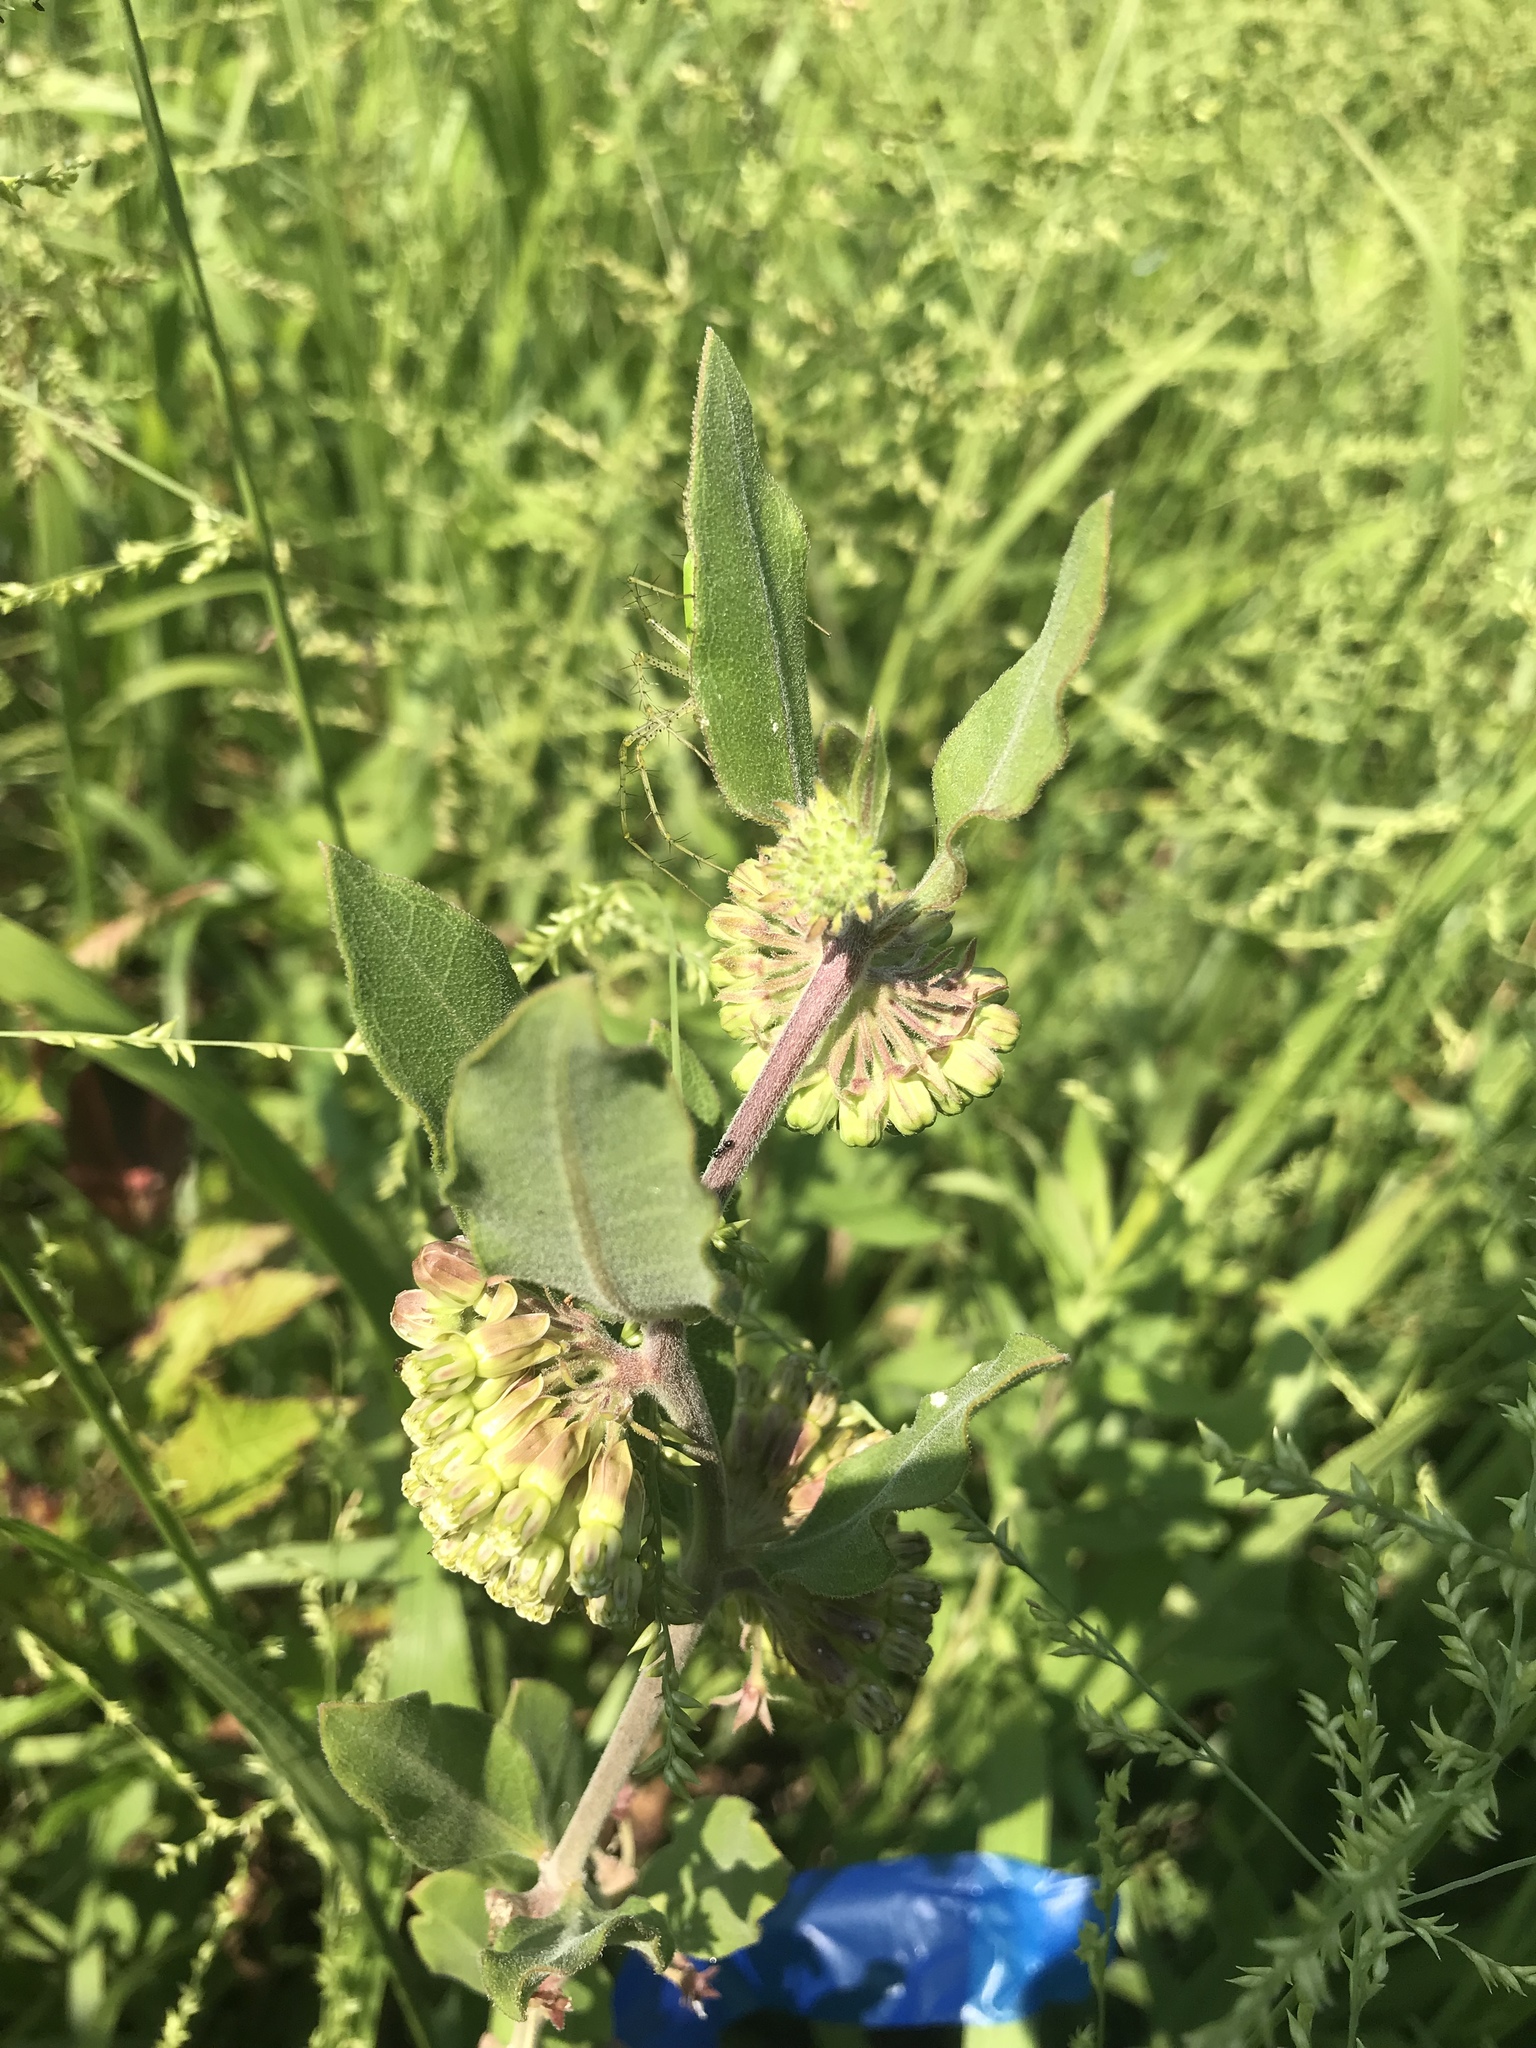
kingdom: Plantae
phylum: Tracheophyta
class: Magnoliopsida
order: Gentianales
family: Apocynaceae
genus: Asclepias
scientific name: Asclepias viridiflora
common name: Green comet milkweed
